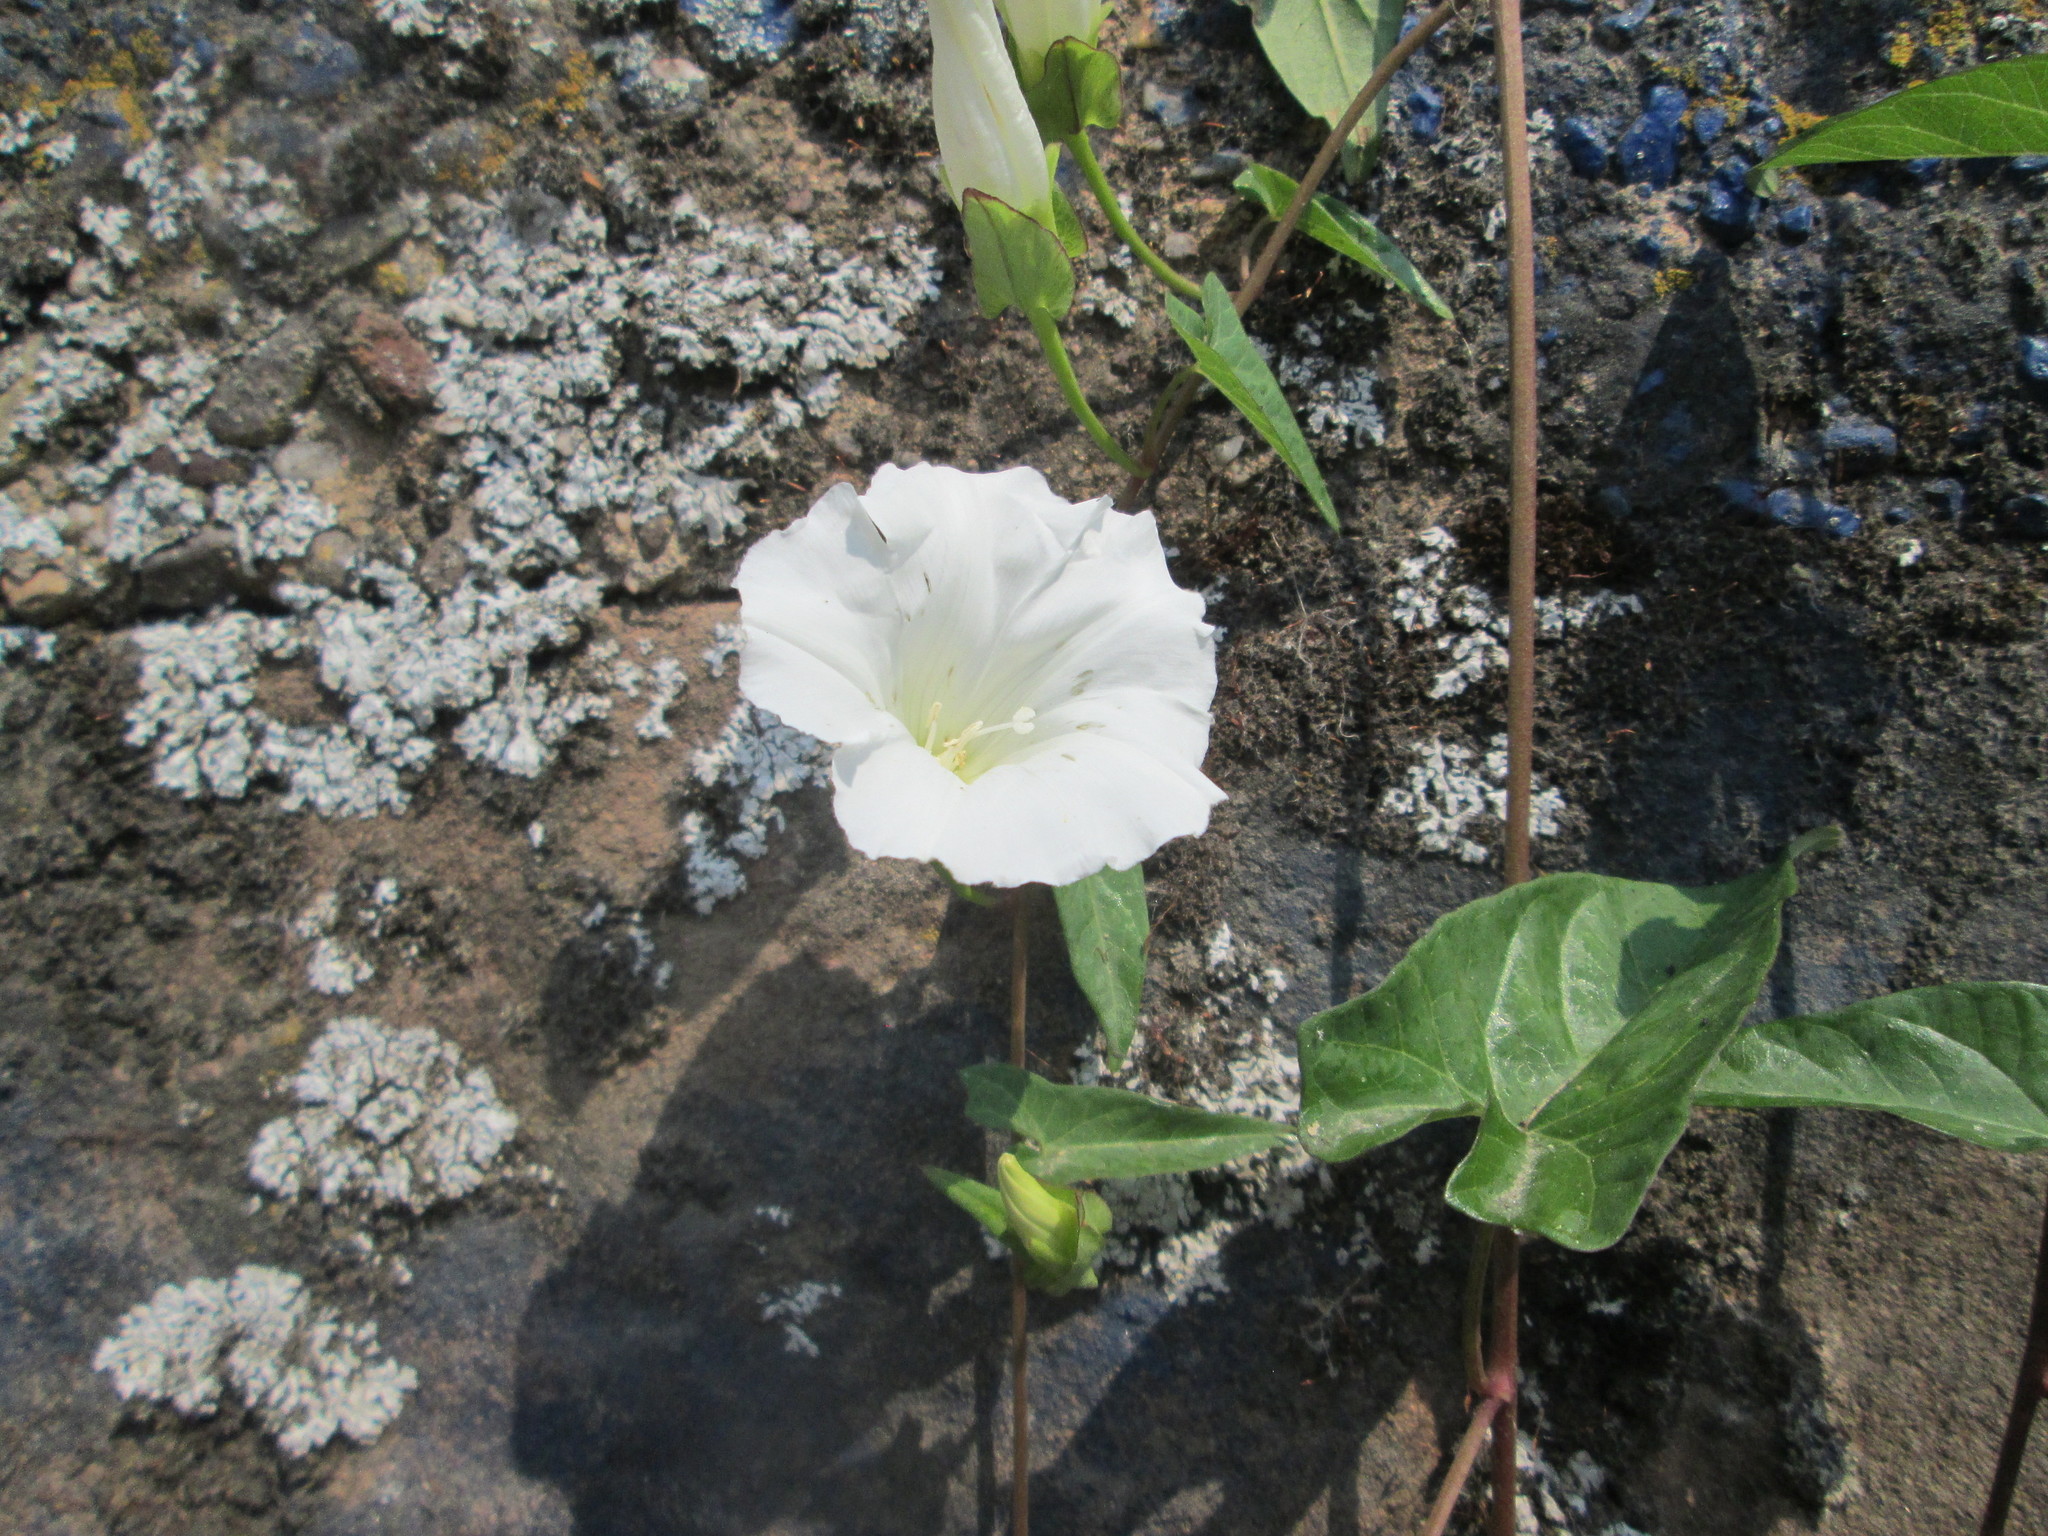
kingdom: Plantae
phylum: Tracheophyta
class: Magnoliopsida
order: Solanales
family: Convolvulaceae
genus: Calystegia
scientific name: Calystegia sepium
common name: Hedge bindweed
